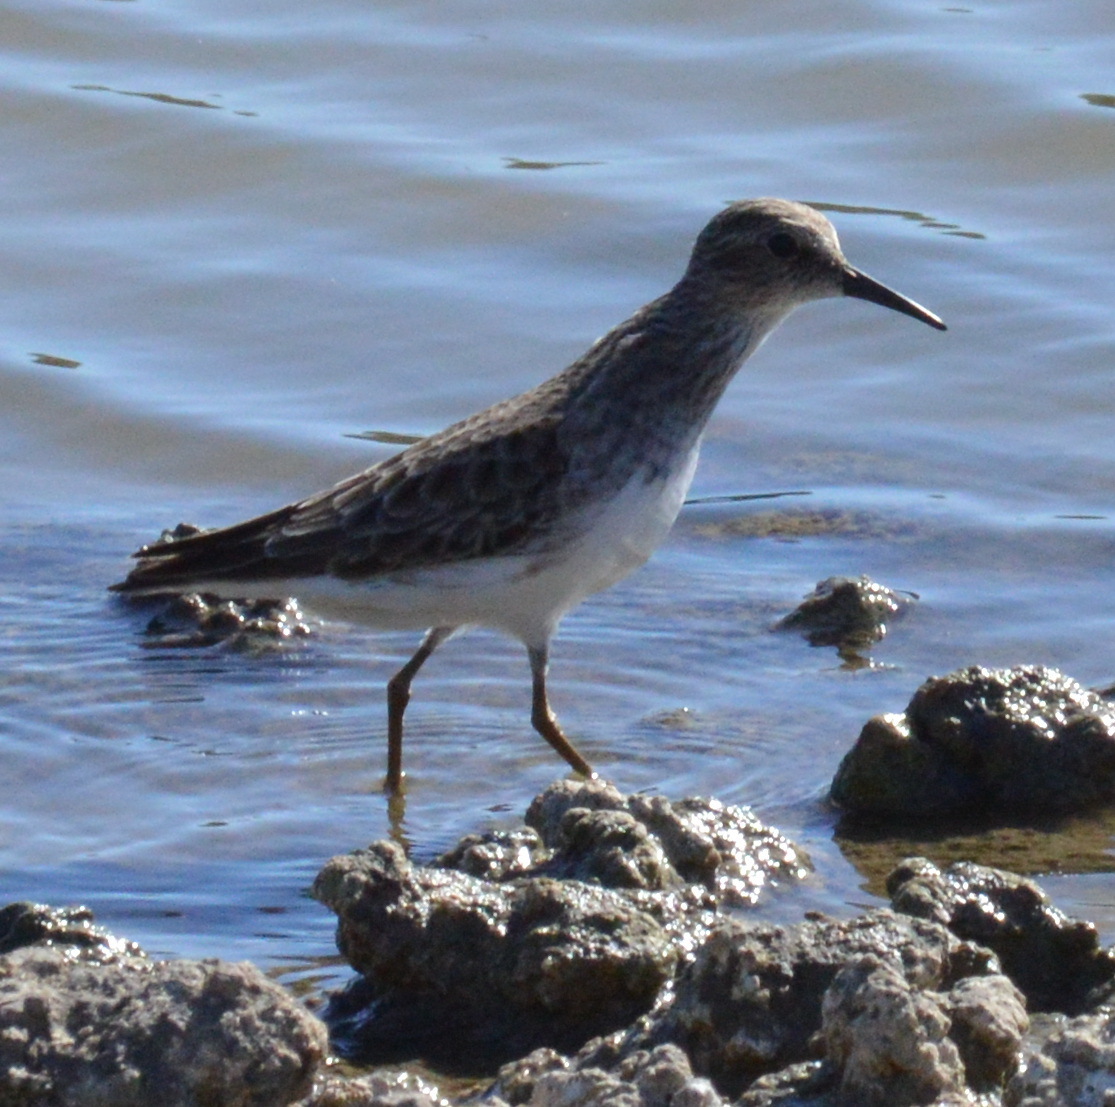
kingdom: Animalia
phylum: Chordata
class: Aves
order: Charadriiformes
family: Scolopacidae
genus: Calidris
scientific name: Calidris minutilla
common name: Least sandpiper
